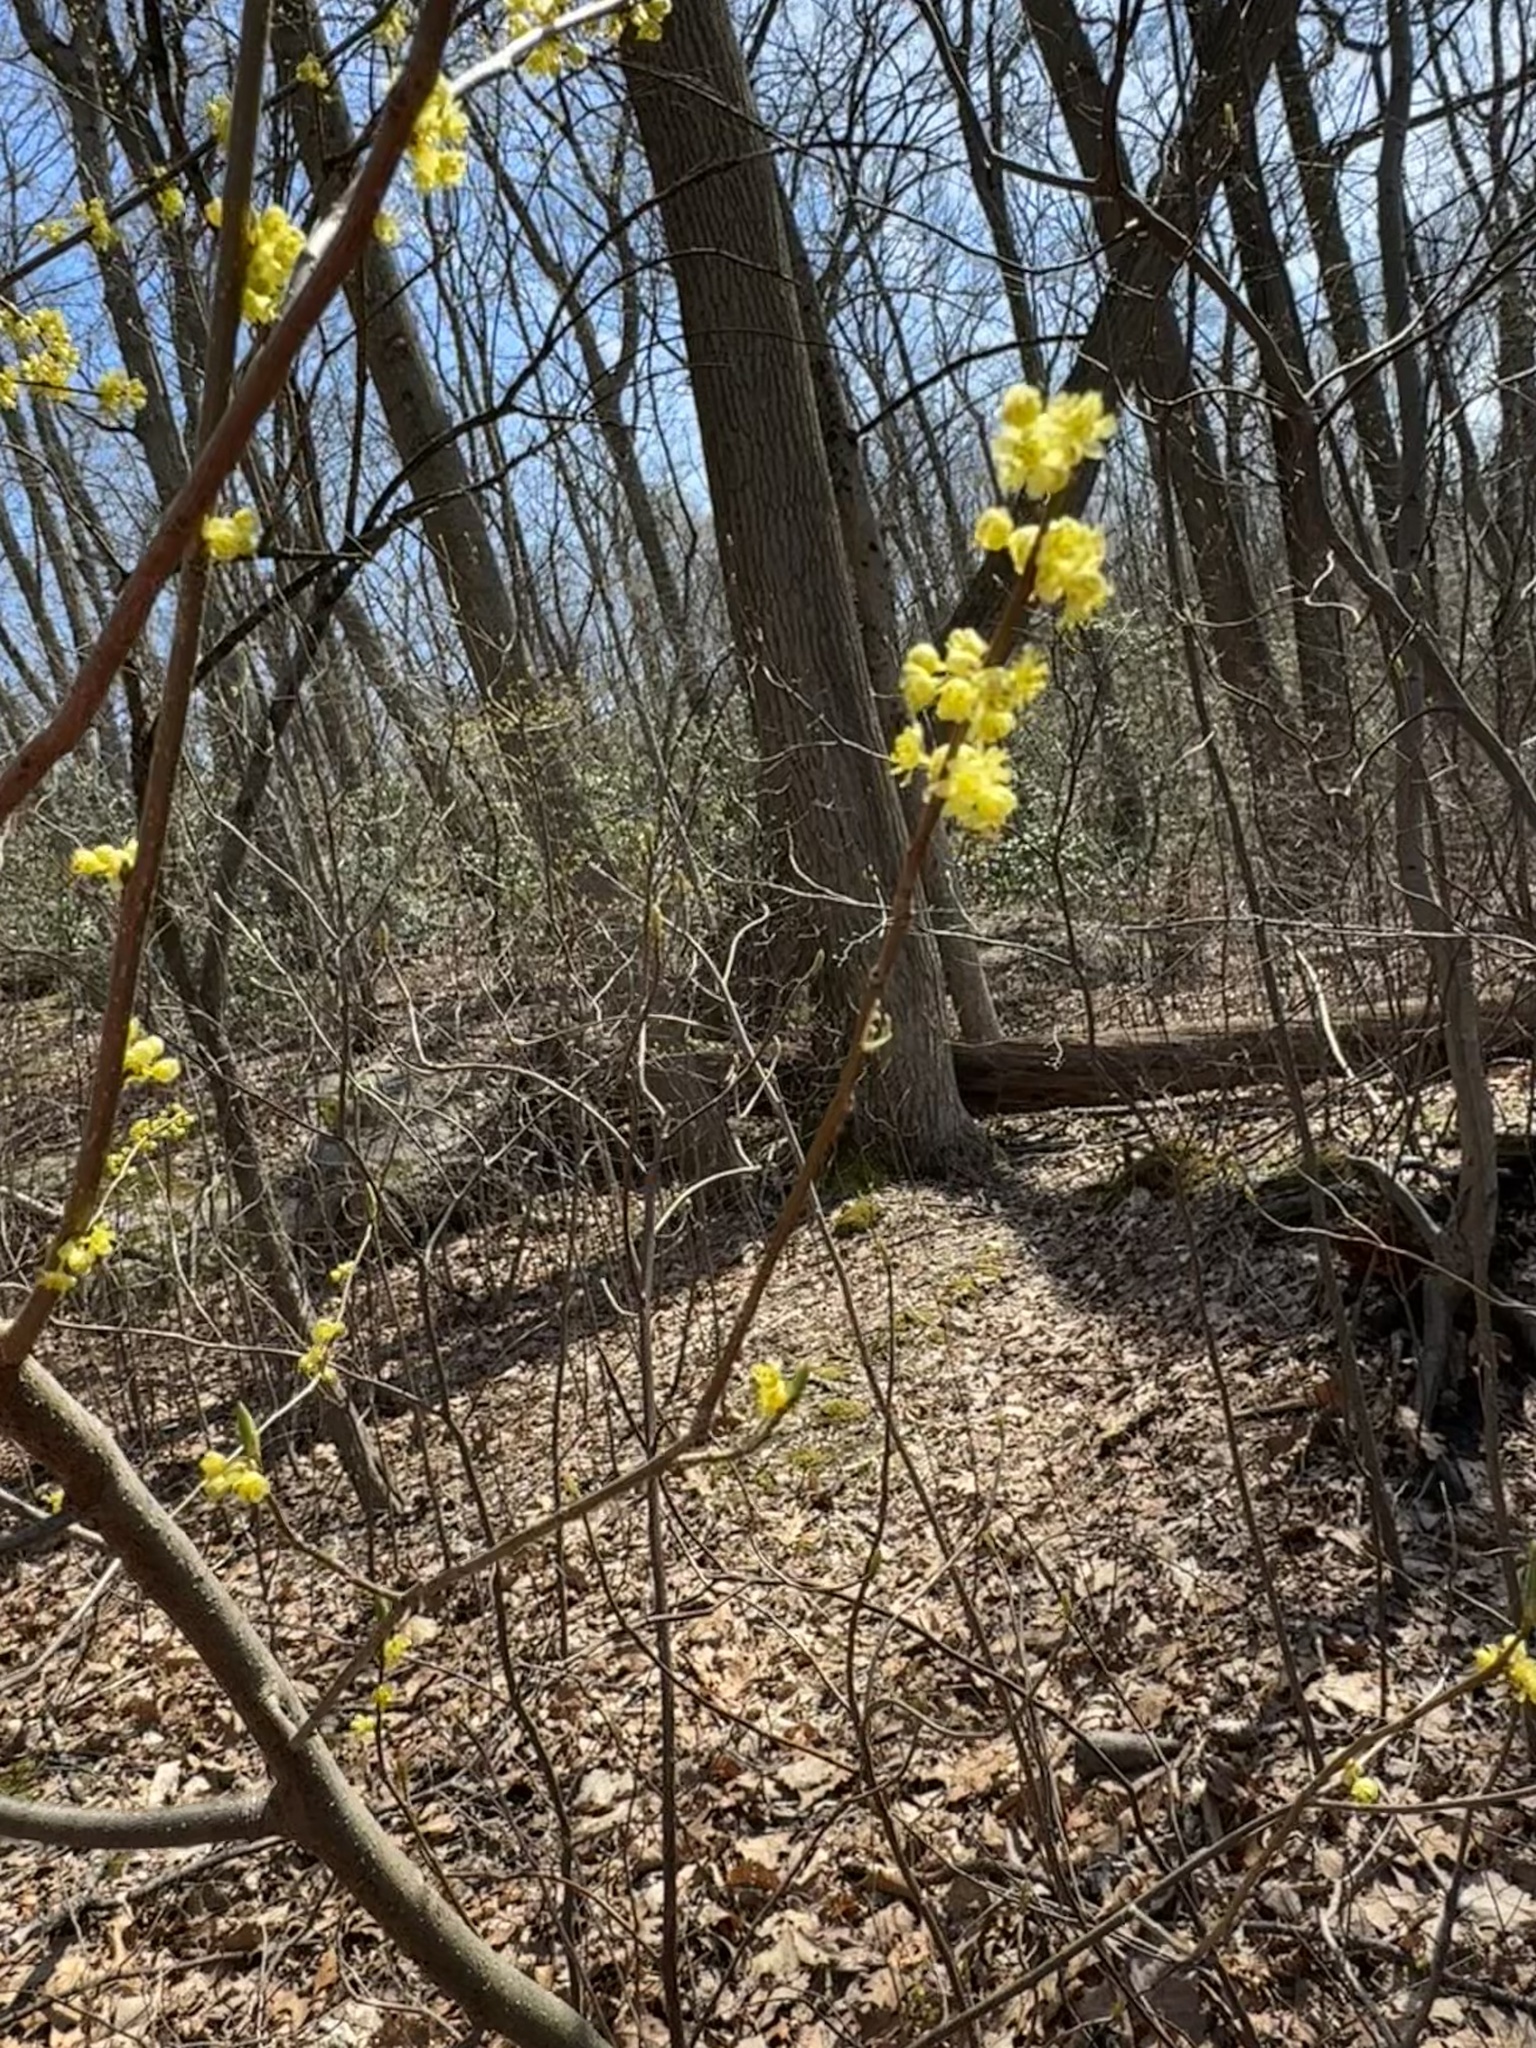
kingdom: Plantae
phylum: Tracheophyta
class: Magnoliopsida
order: Laurales
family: Lauraceae
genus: Lindera
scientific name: Lindera benzoin
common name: Spicebush
